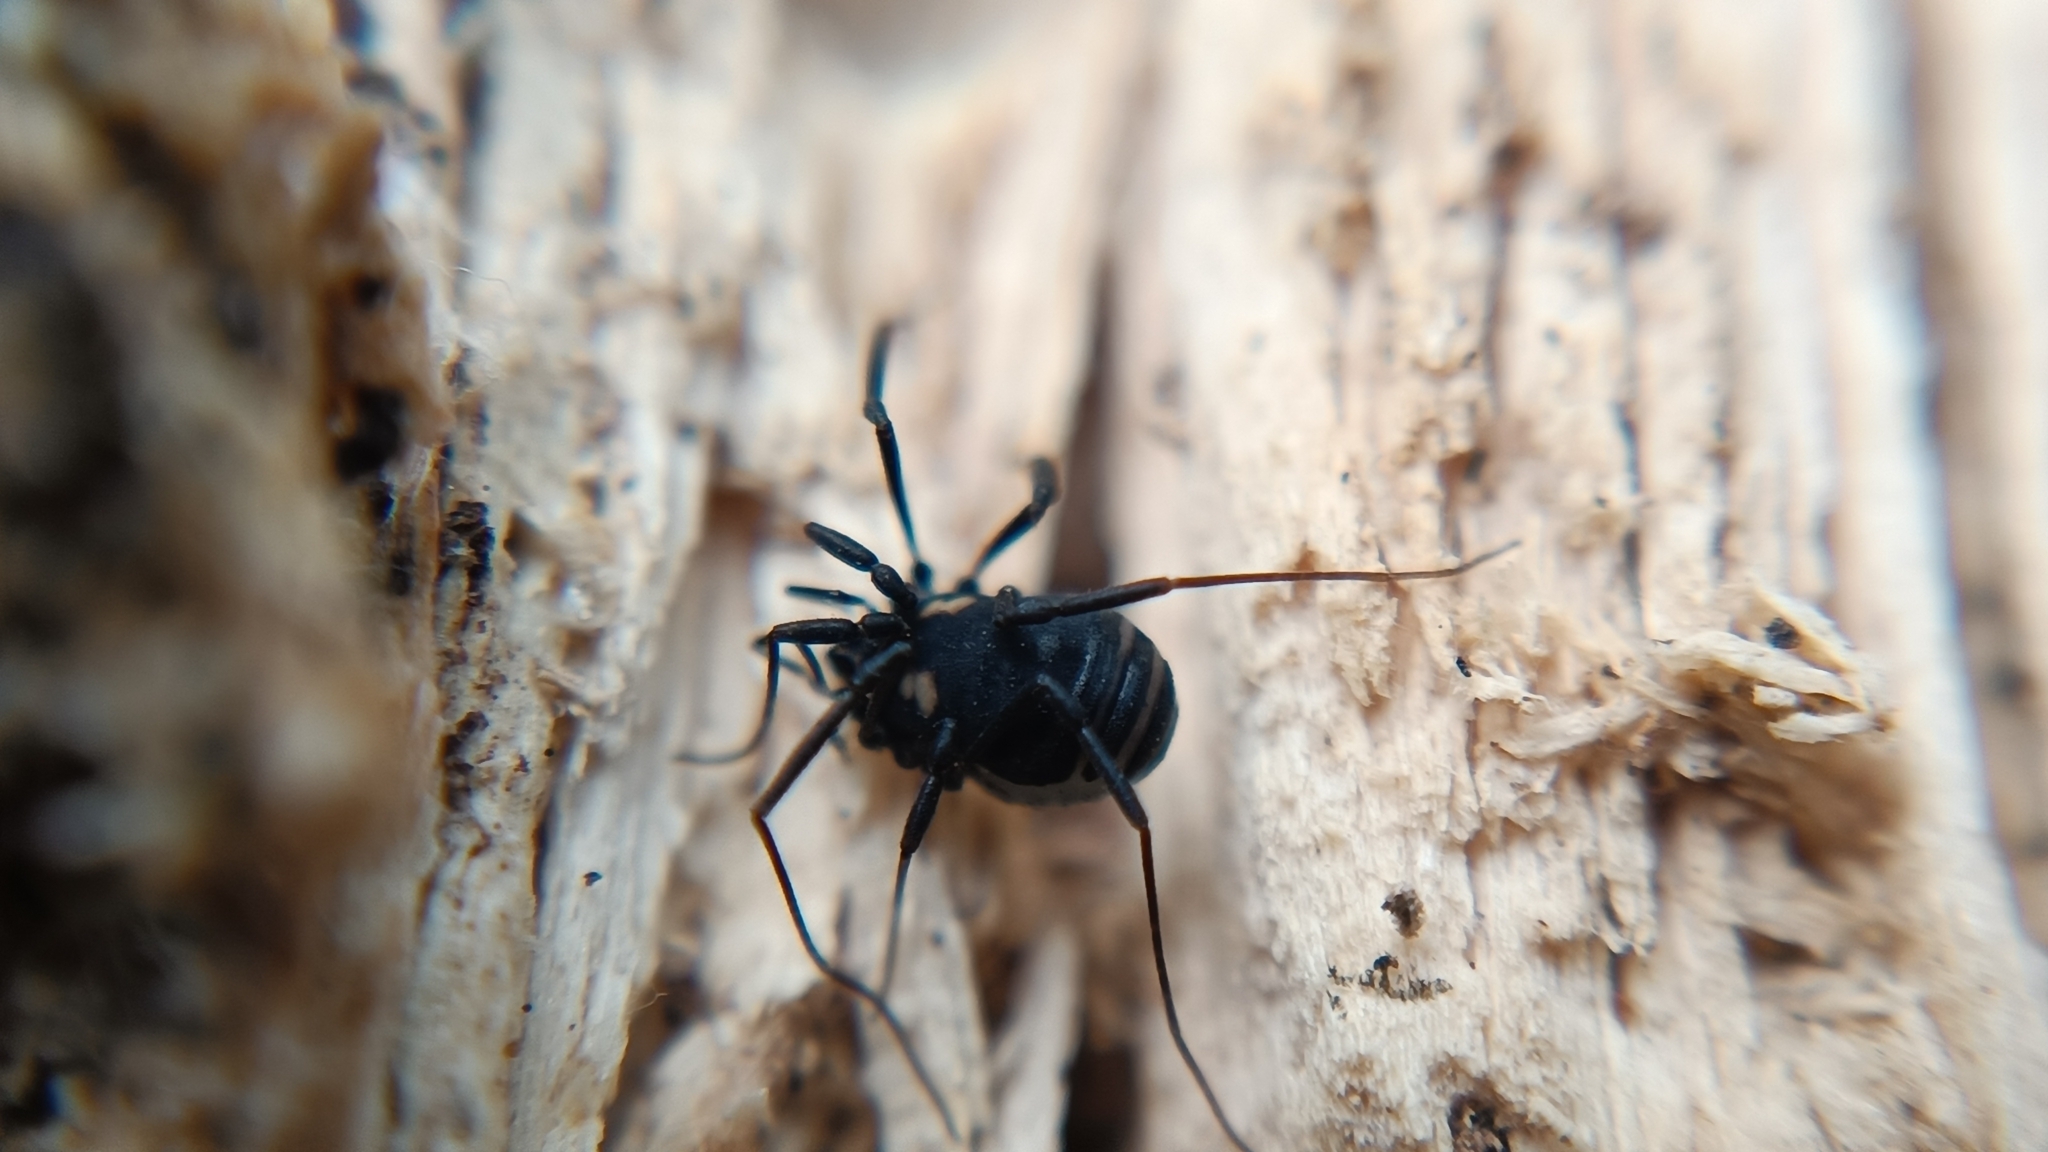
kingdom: Animalia
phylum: Arthropoda
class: Arachnida
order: Opiliones
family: Nemastomatidae
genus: Nemastoma
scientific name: Nemastoma bimaculatum
